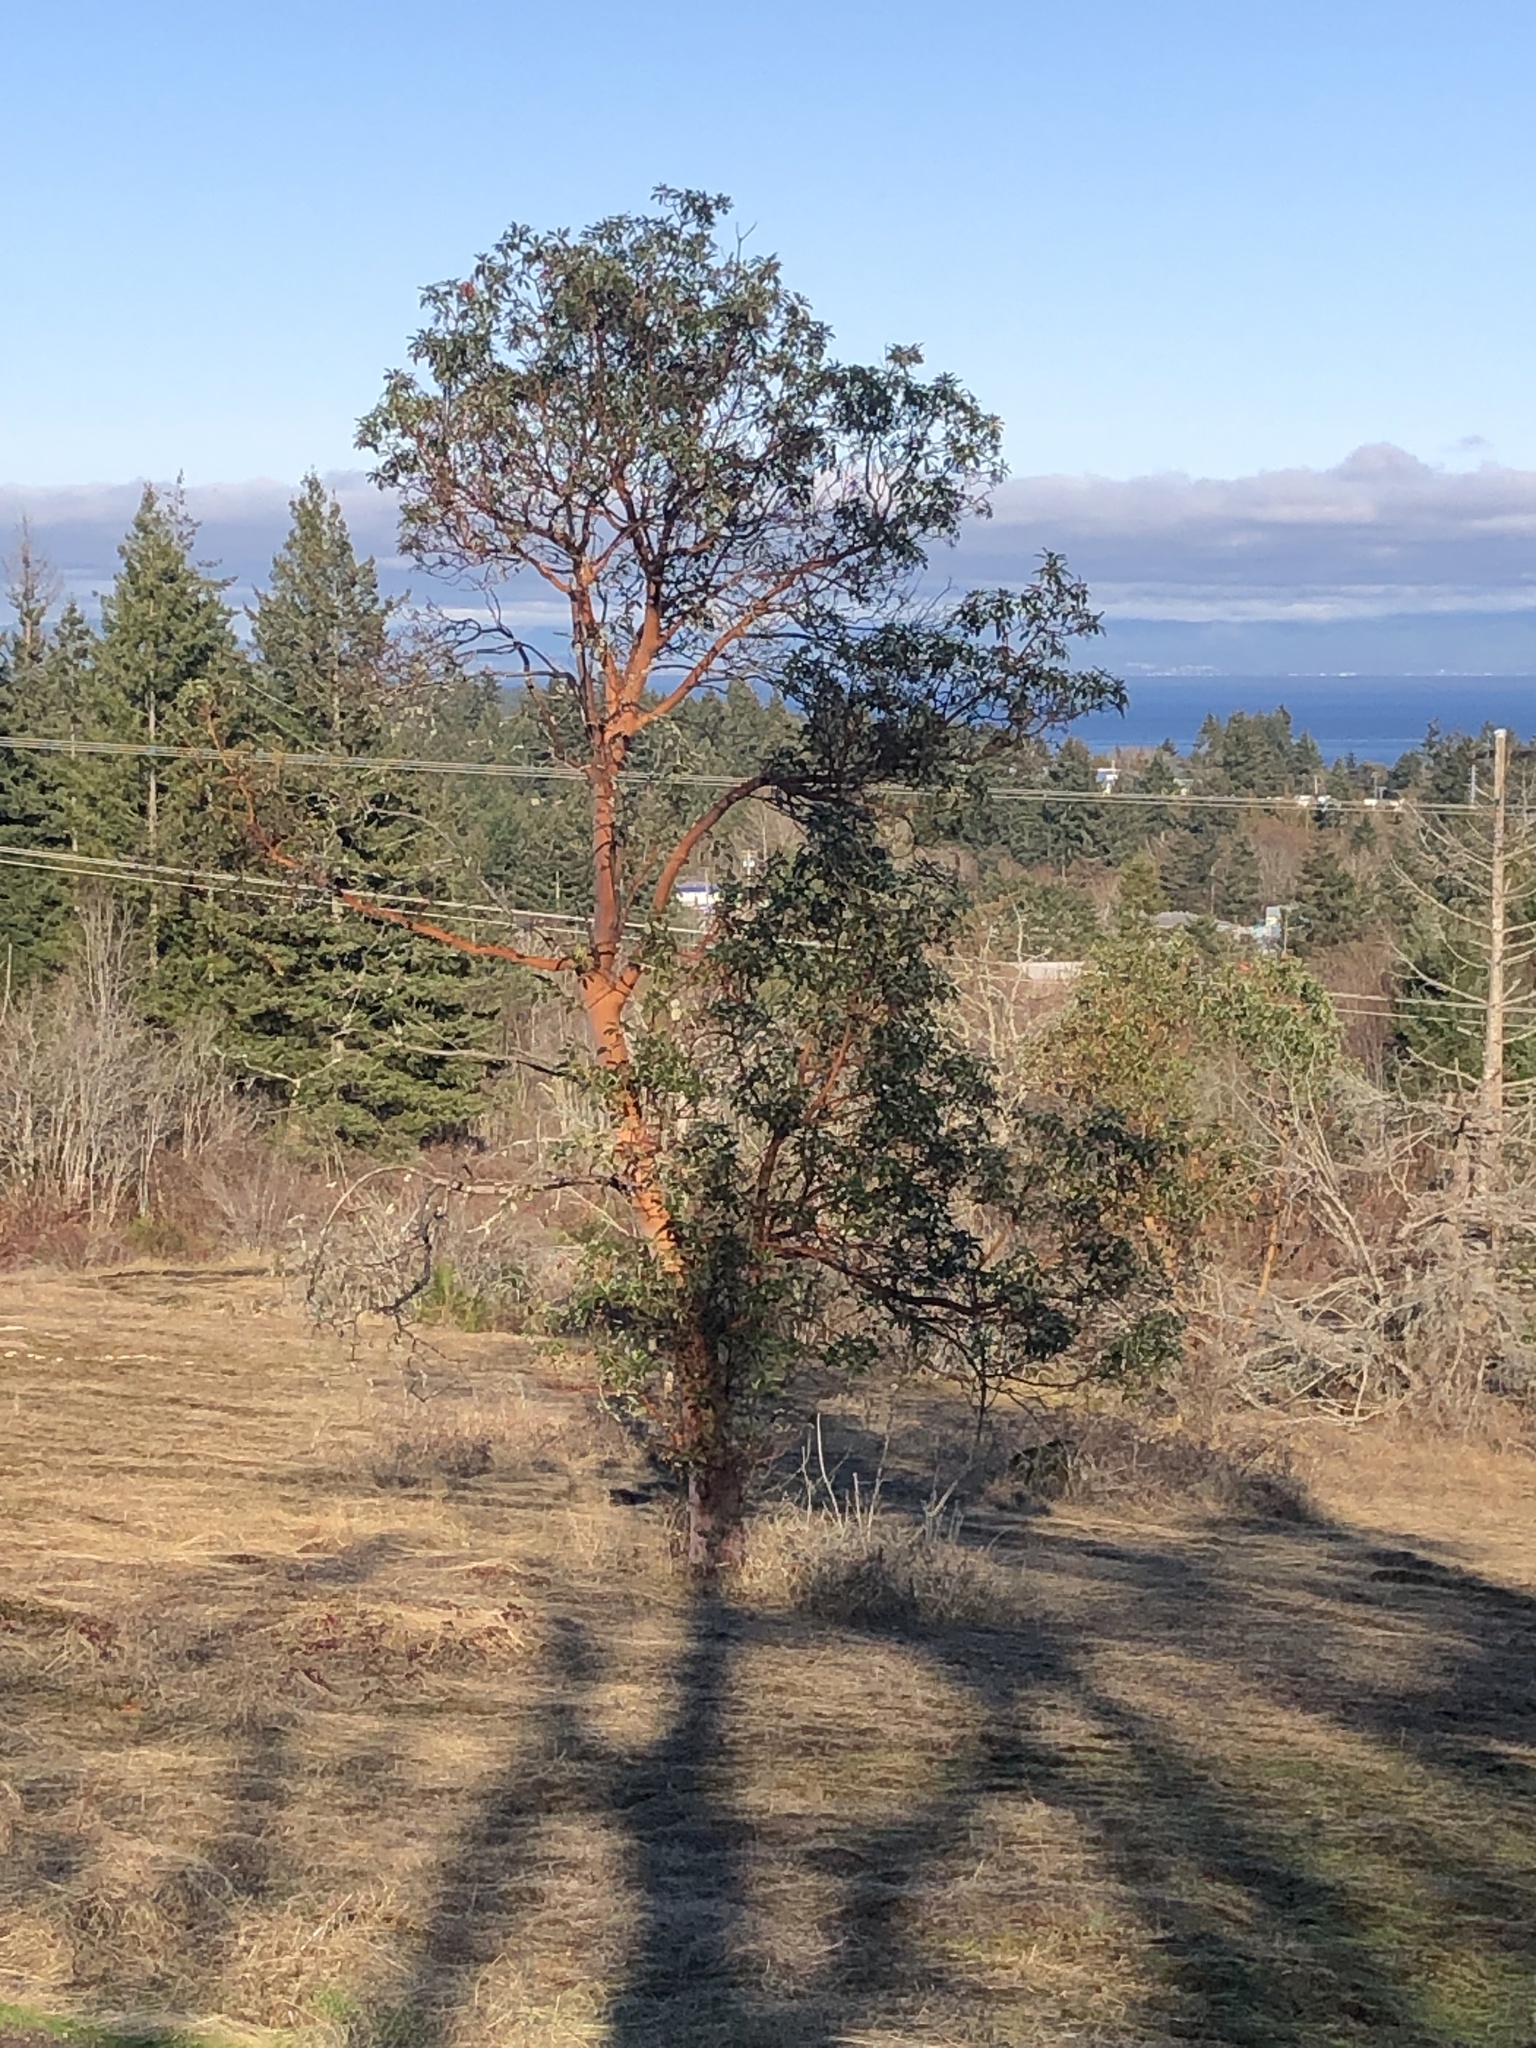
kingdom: Plantae
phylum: Tracheophyta
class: Magnoliopsida
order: Ericales
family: Ericaceae
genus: Arbutus
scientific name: Arbutus menziesii
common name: Pacific madrone
